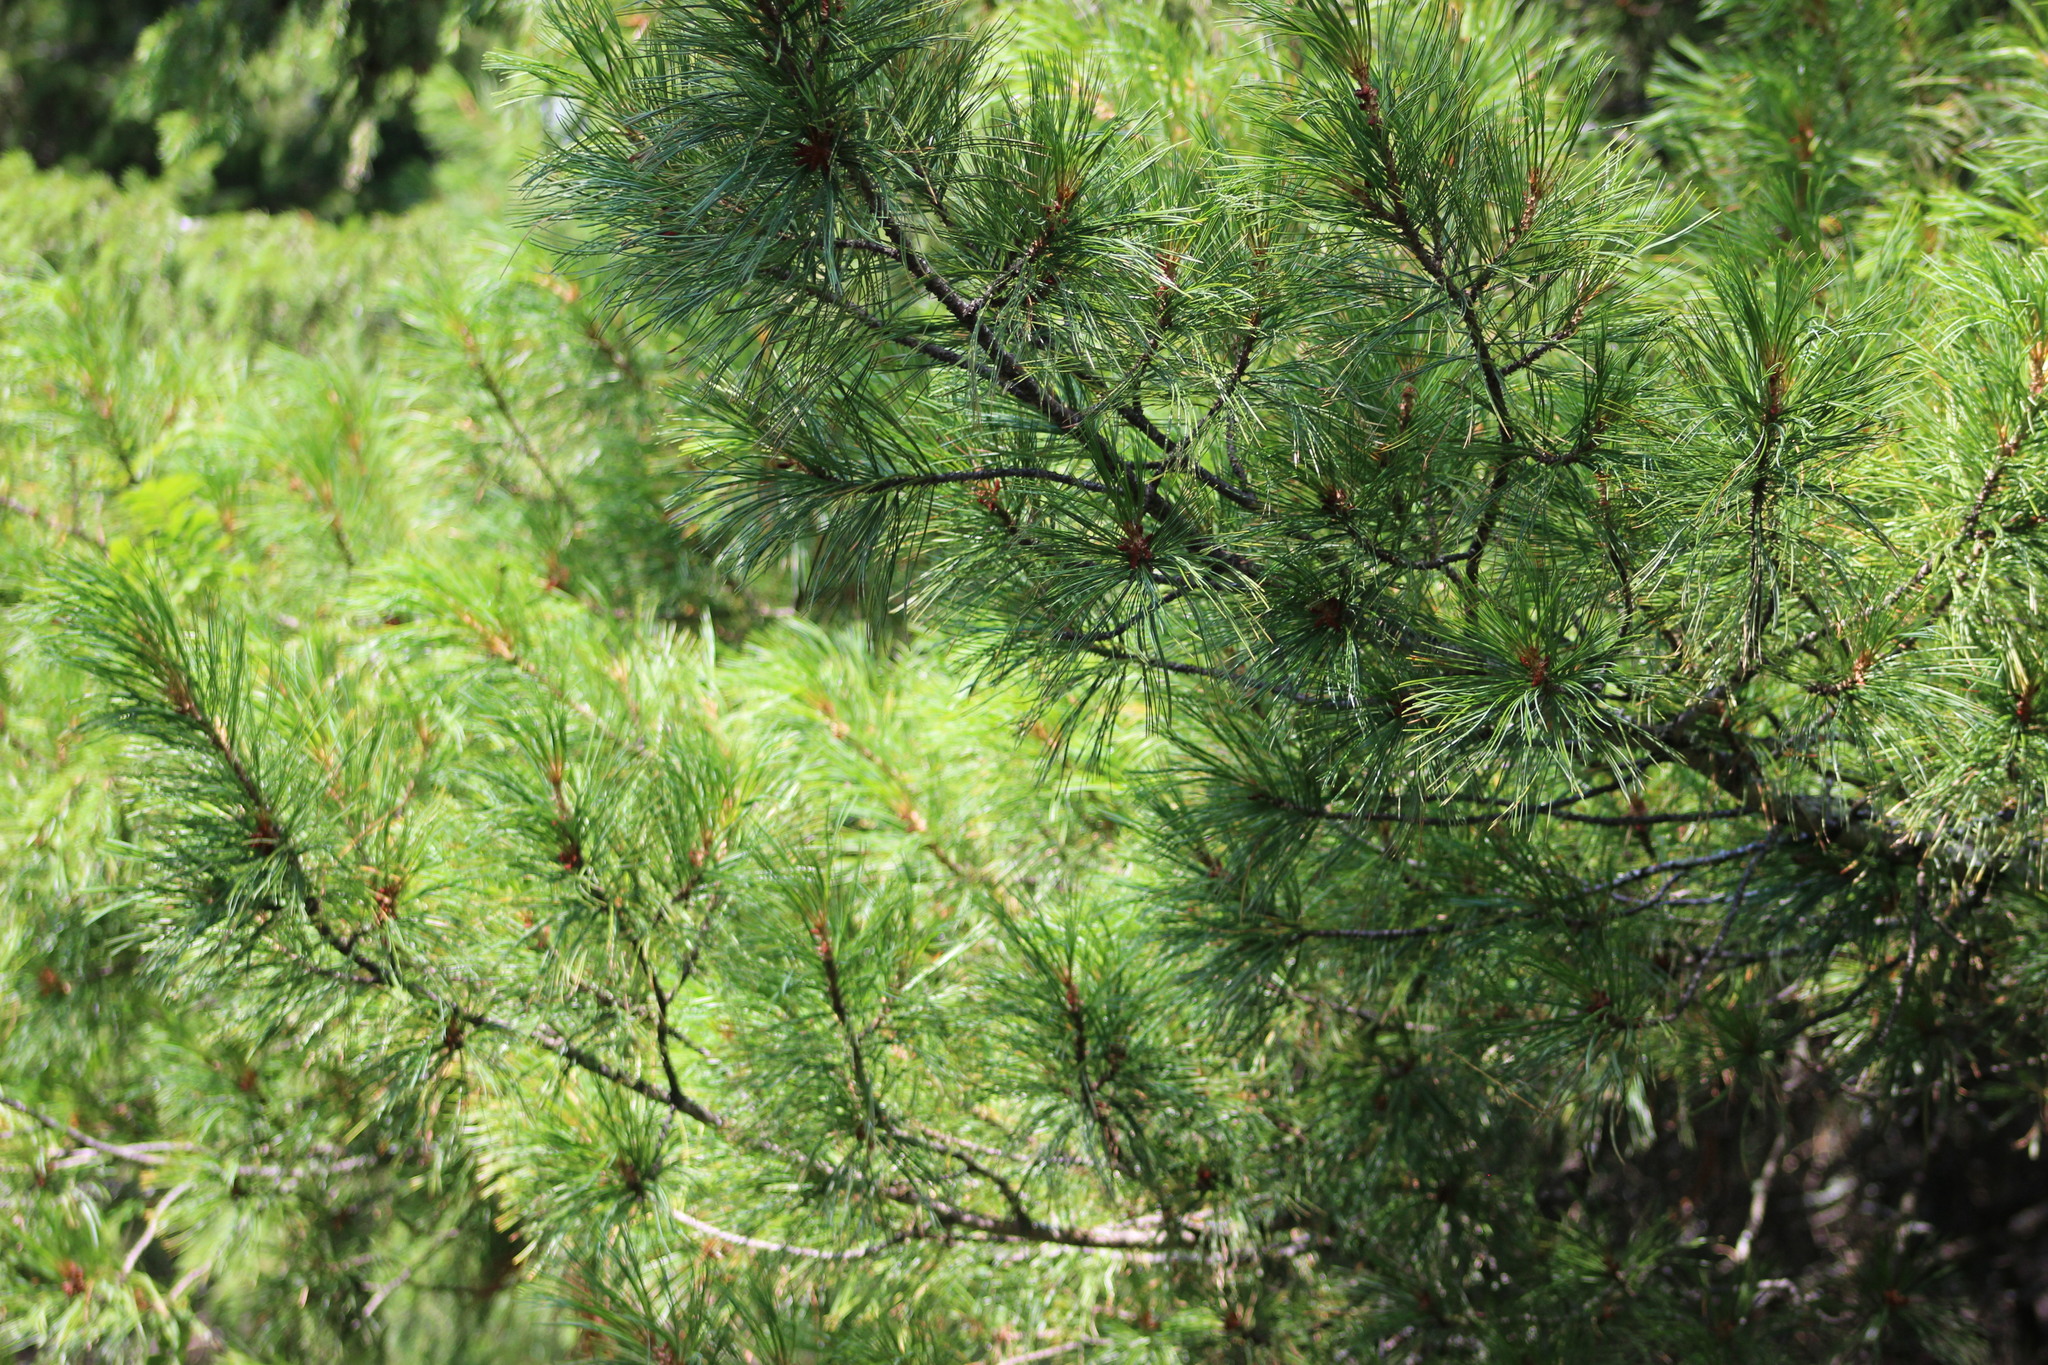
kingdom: Plantae
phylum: Tracheophyta
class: Pinopsida
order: Pinales
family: Pinaceae
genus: Pinus
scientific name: Pinus sibirica
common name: Siberian pine
